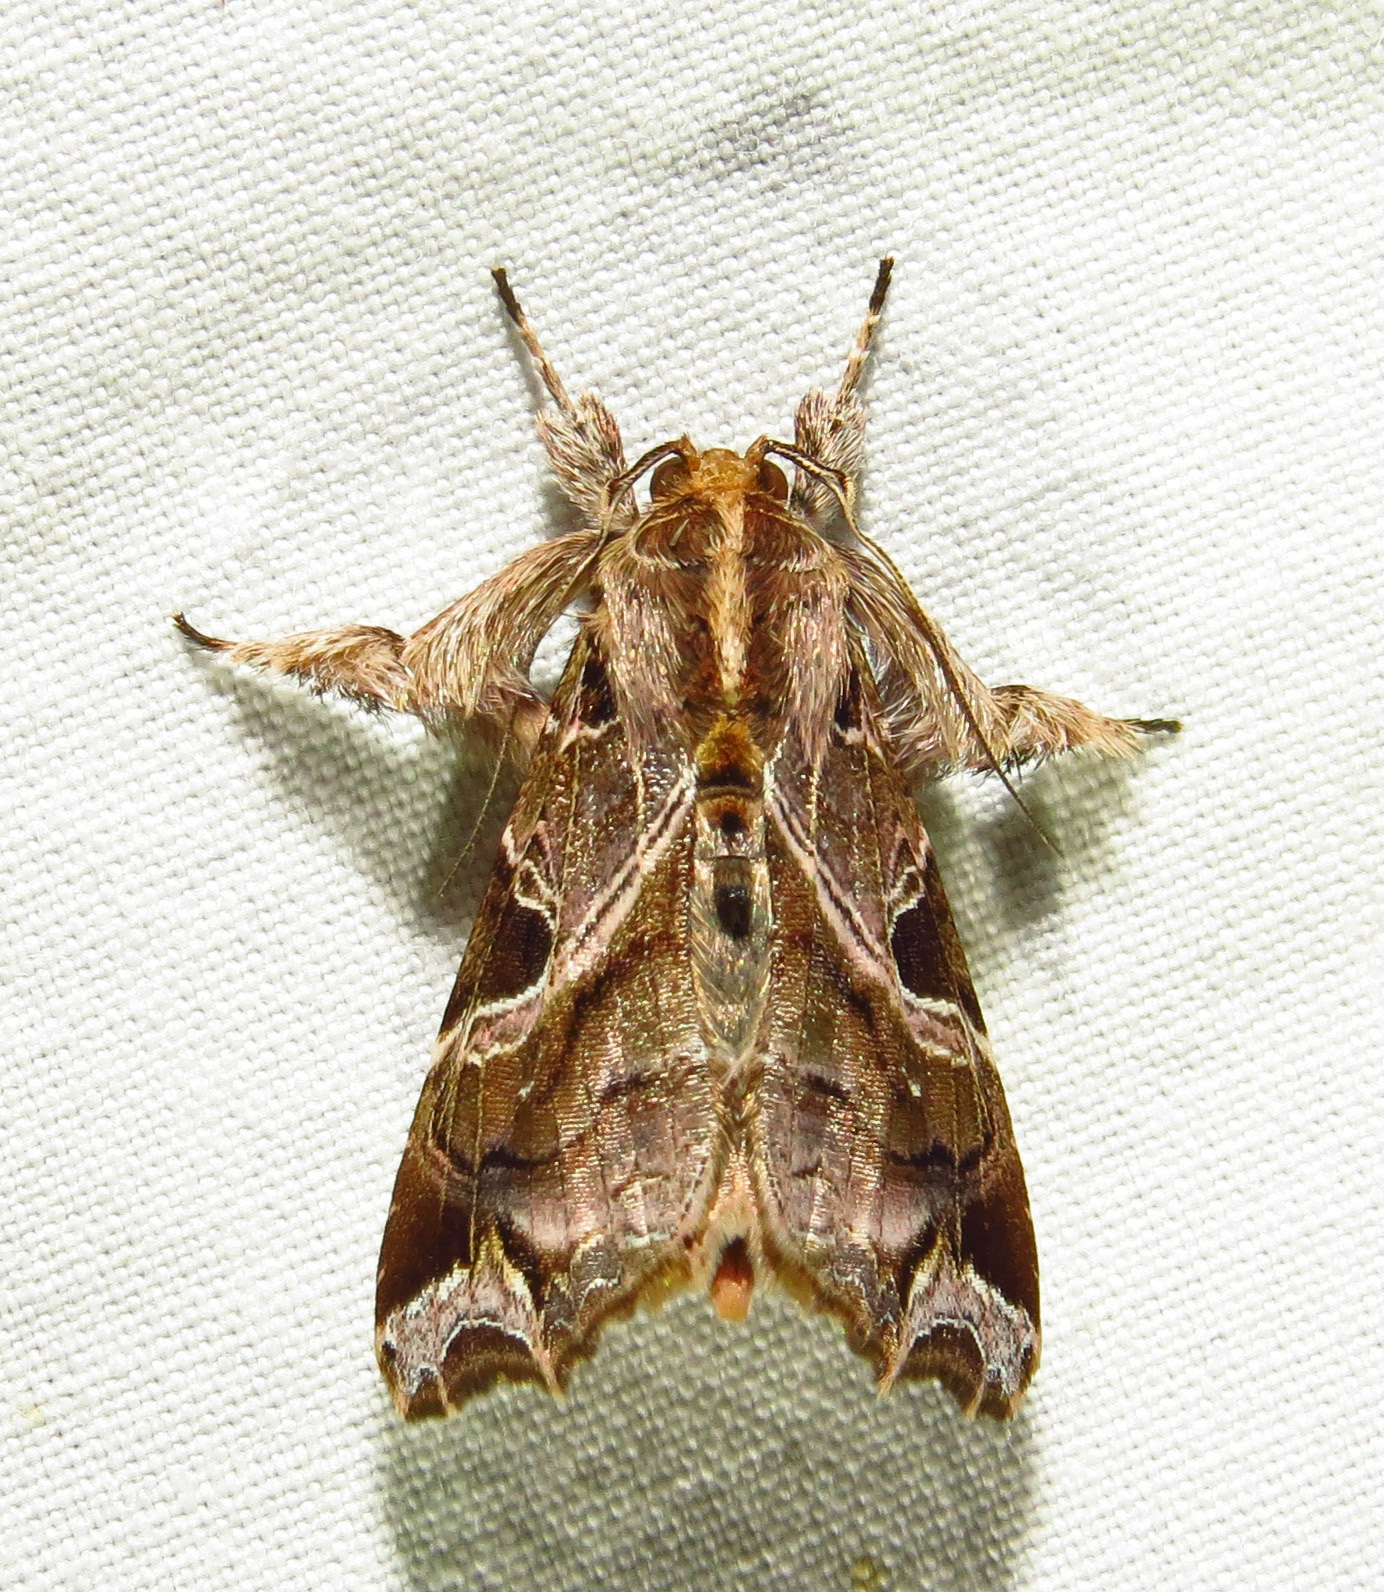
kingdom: Animalia
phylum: Arthropoda
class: Insecta
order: Lepidoptera
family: Noctuidae
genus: Callopistria
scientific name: Callopistria floridensis
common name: Florida fern moth
